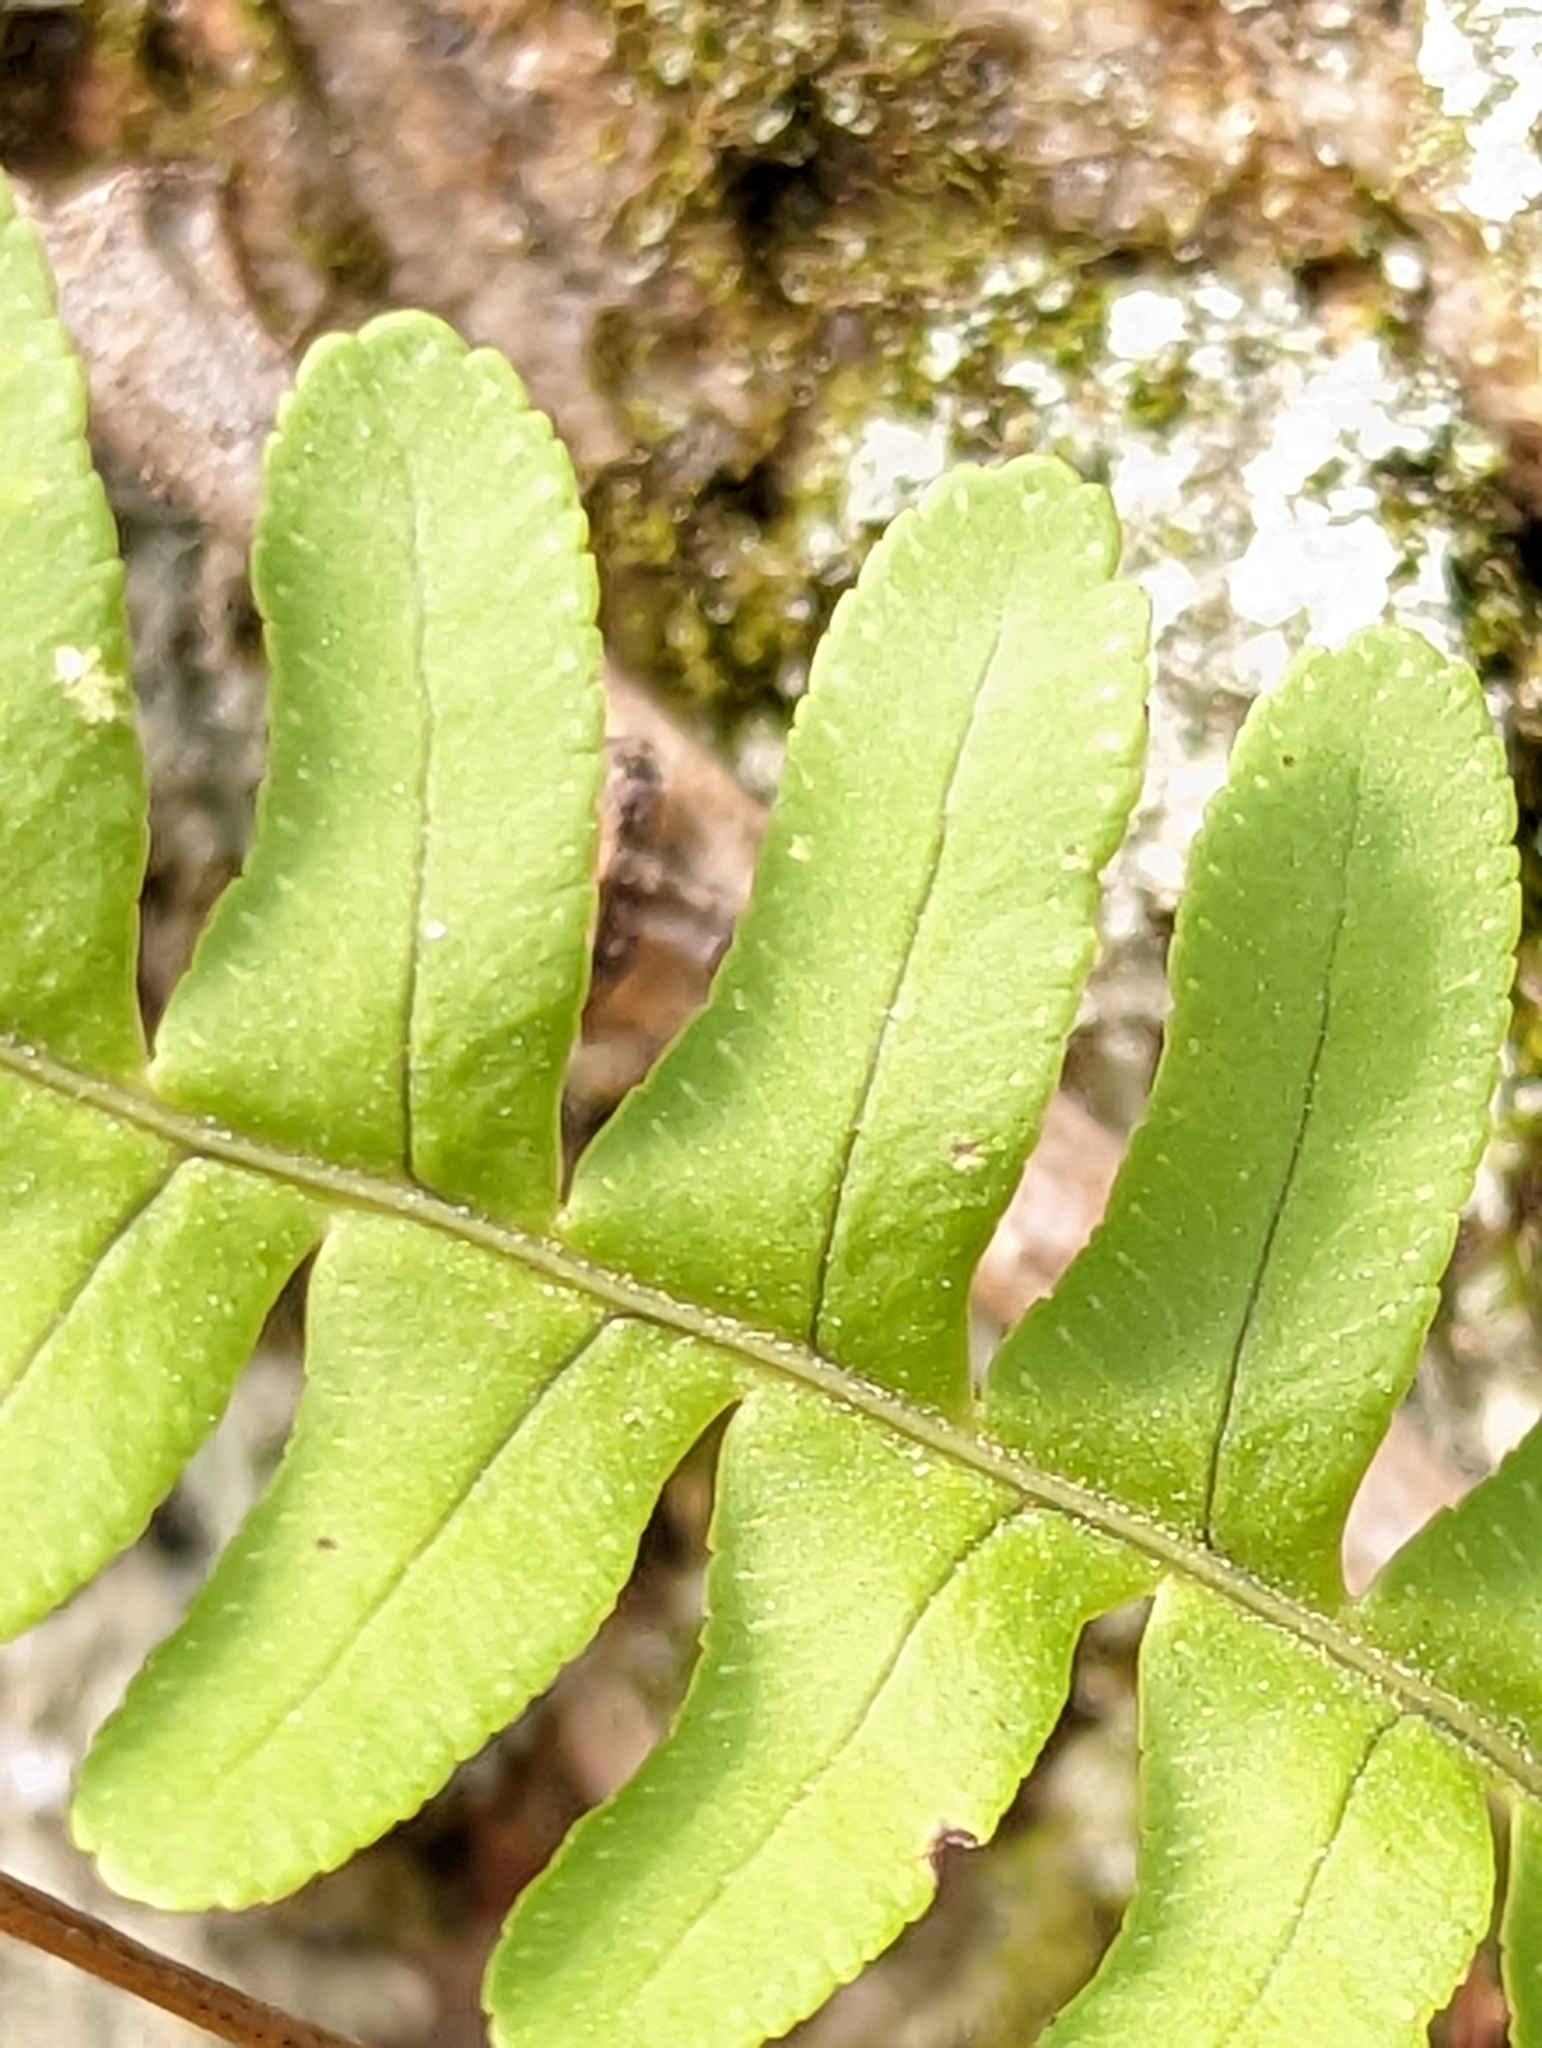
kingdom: Plantae
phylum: Tracheophyta
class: Polypodiopsida
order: Polypodiales
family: Polypodiaceae
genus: Polypodium
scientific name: Polypodium virginianum
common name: American wall fern
